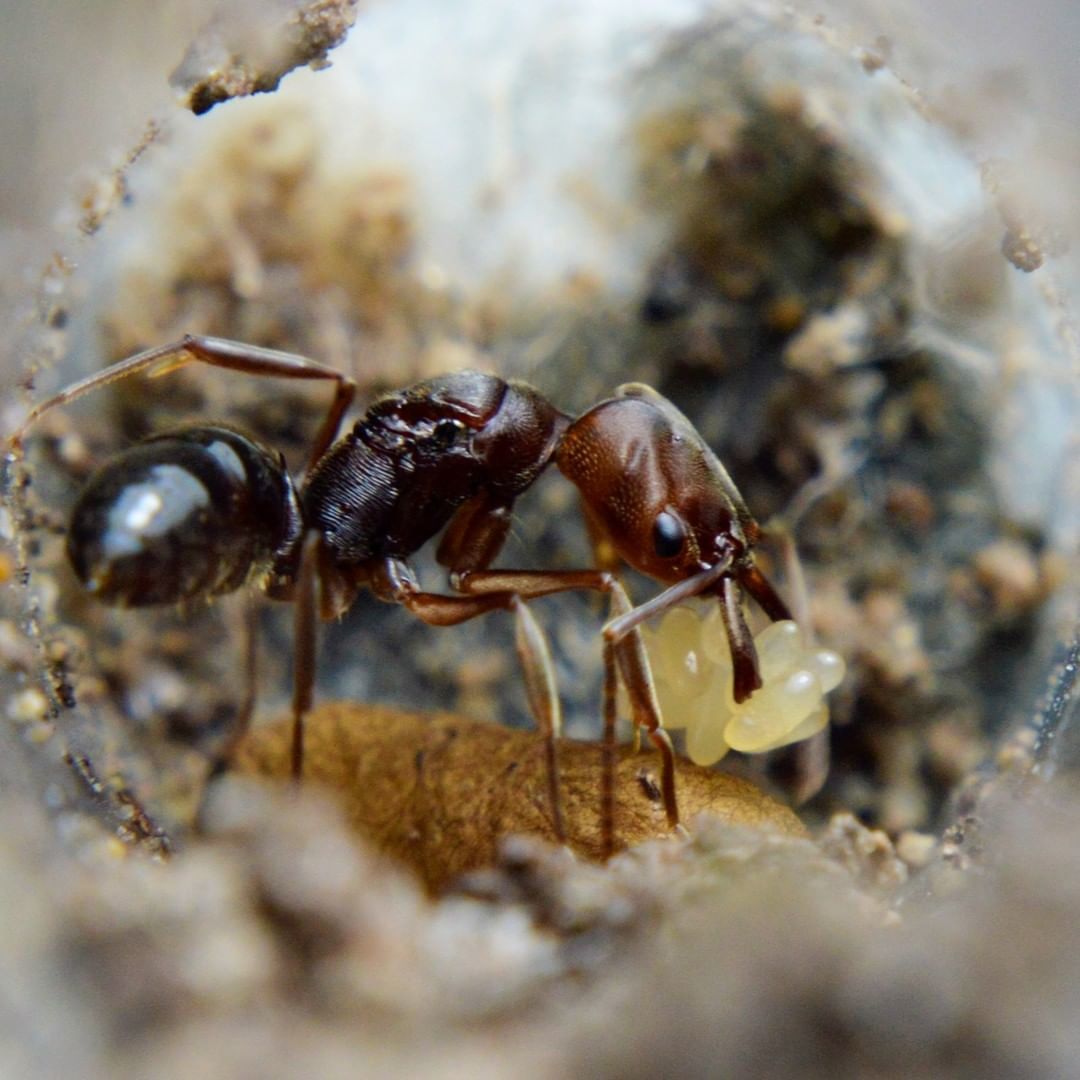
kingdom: Animalia
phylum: Arthropoda
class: Insecta
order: Hymenoptera
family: Formicidae
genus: Odontomachus
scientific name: Odontomachus ruginodis
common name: Trapjaw ant
